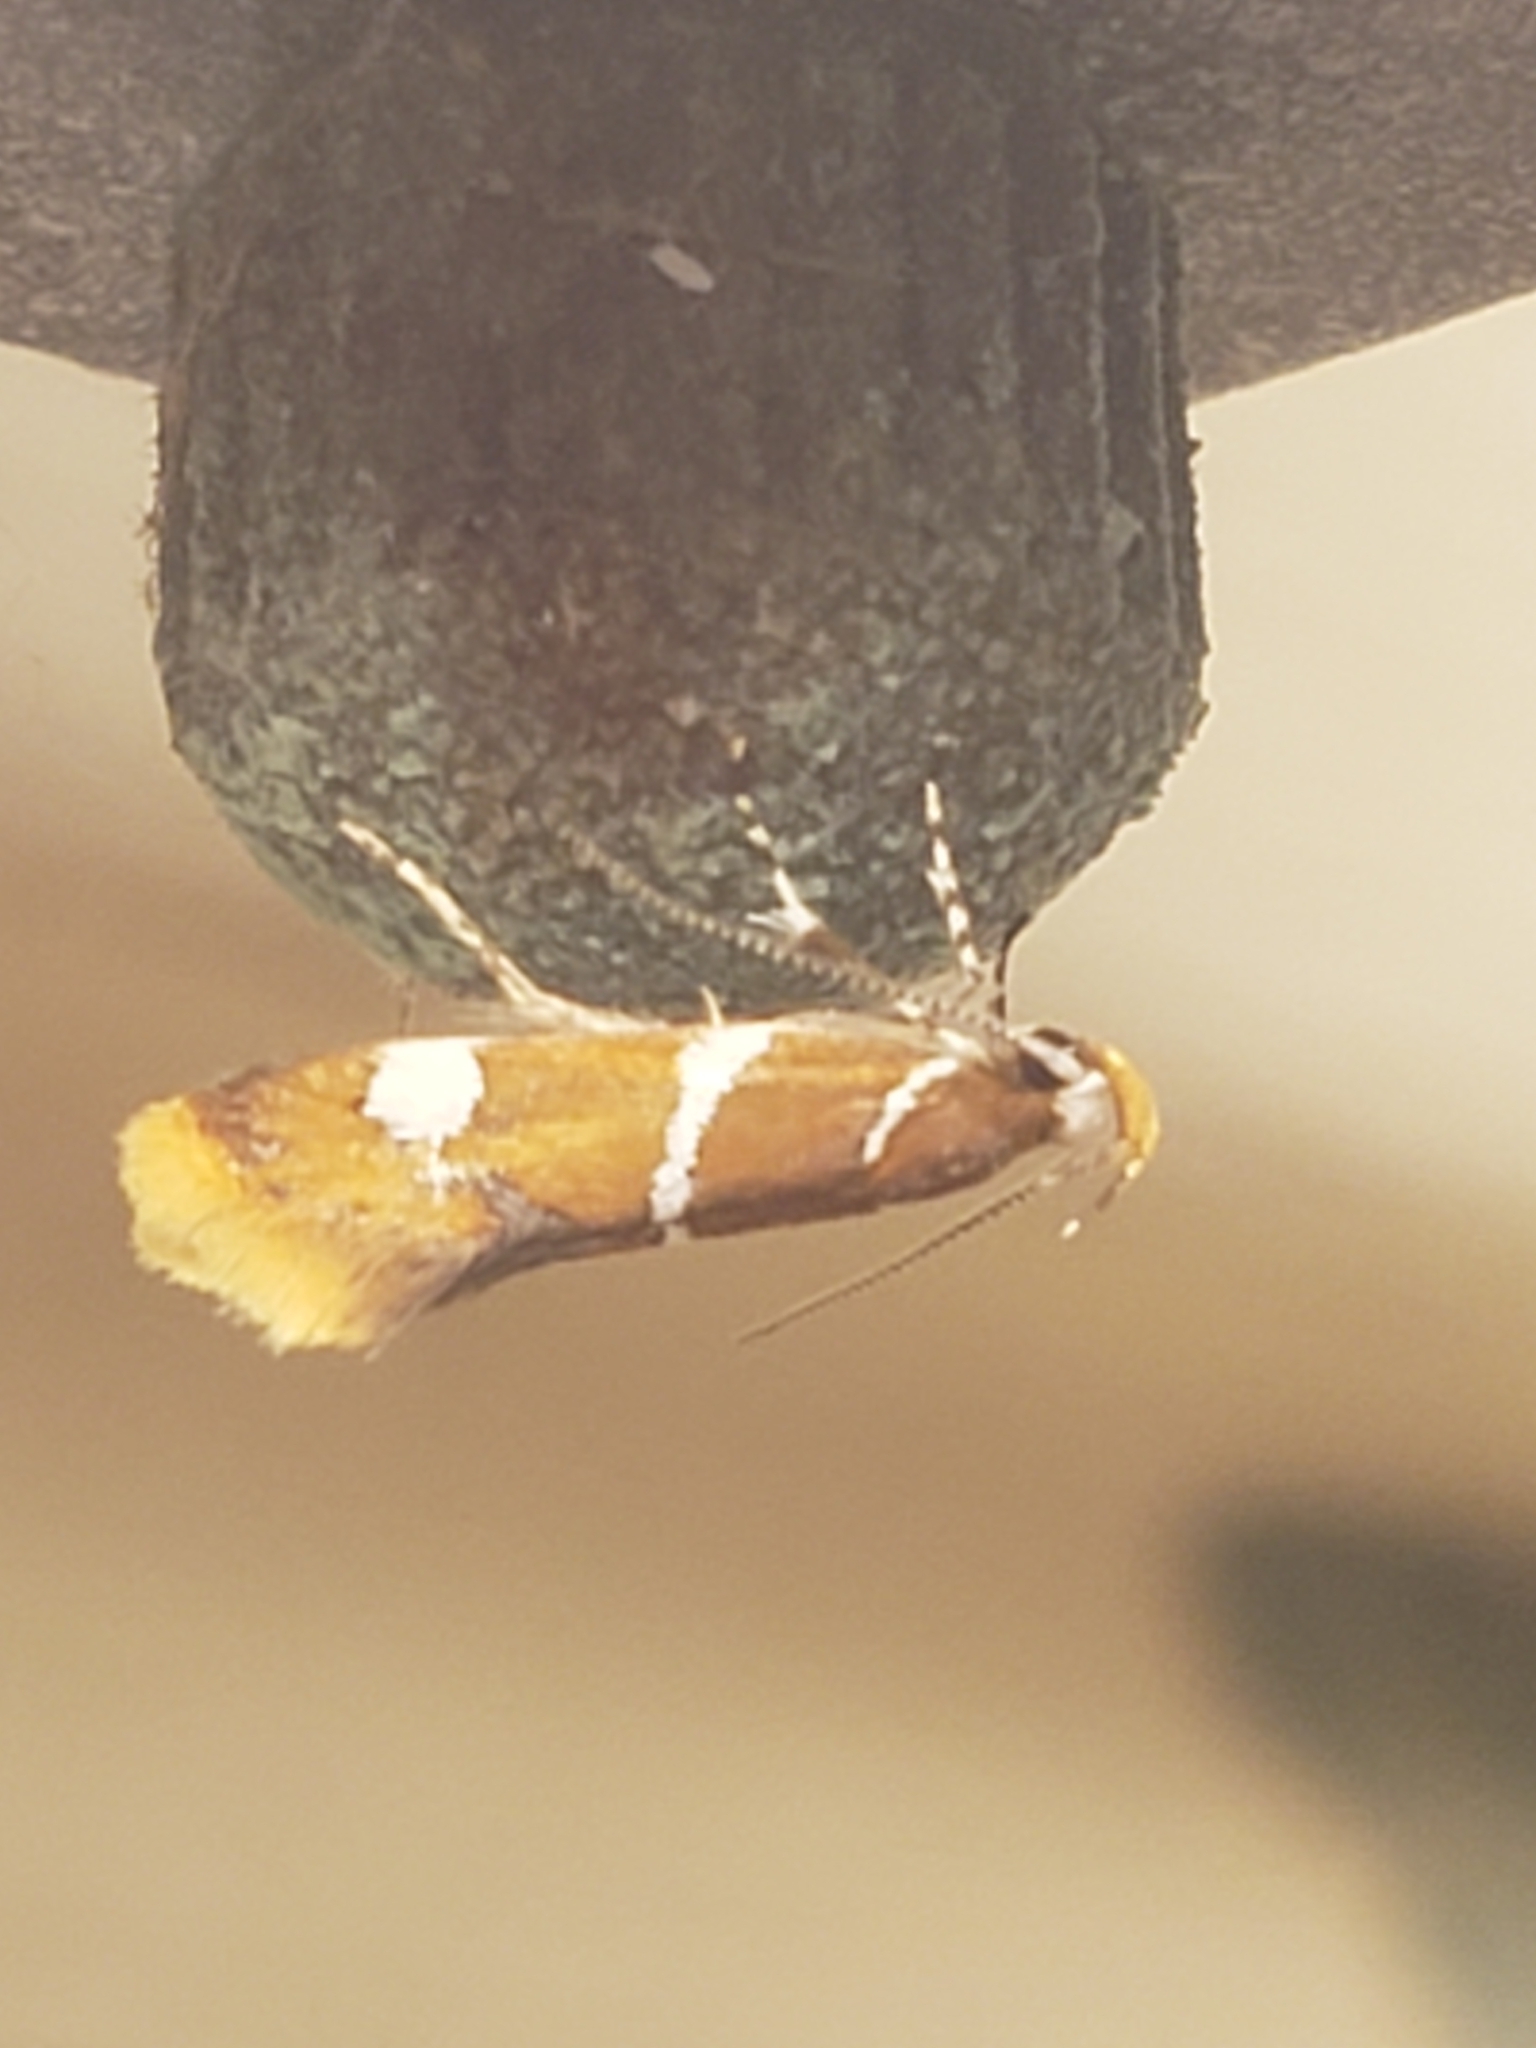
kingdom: Animalia
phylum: Arthropoda
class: Insecta
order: Lepidoptera
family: Oecophoridae
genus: Promalactis
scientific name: Promalactis suzukiella
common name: Moth
